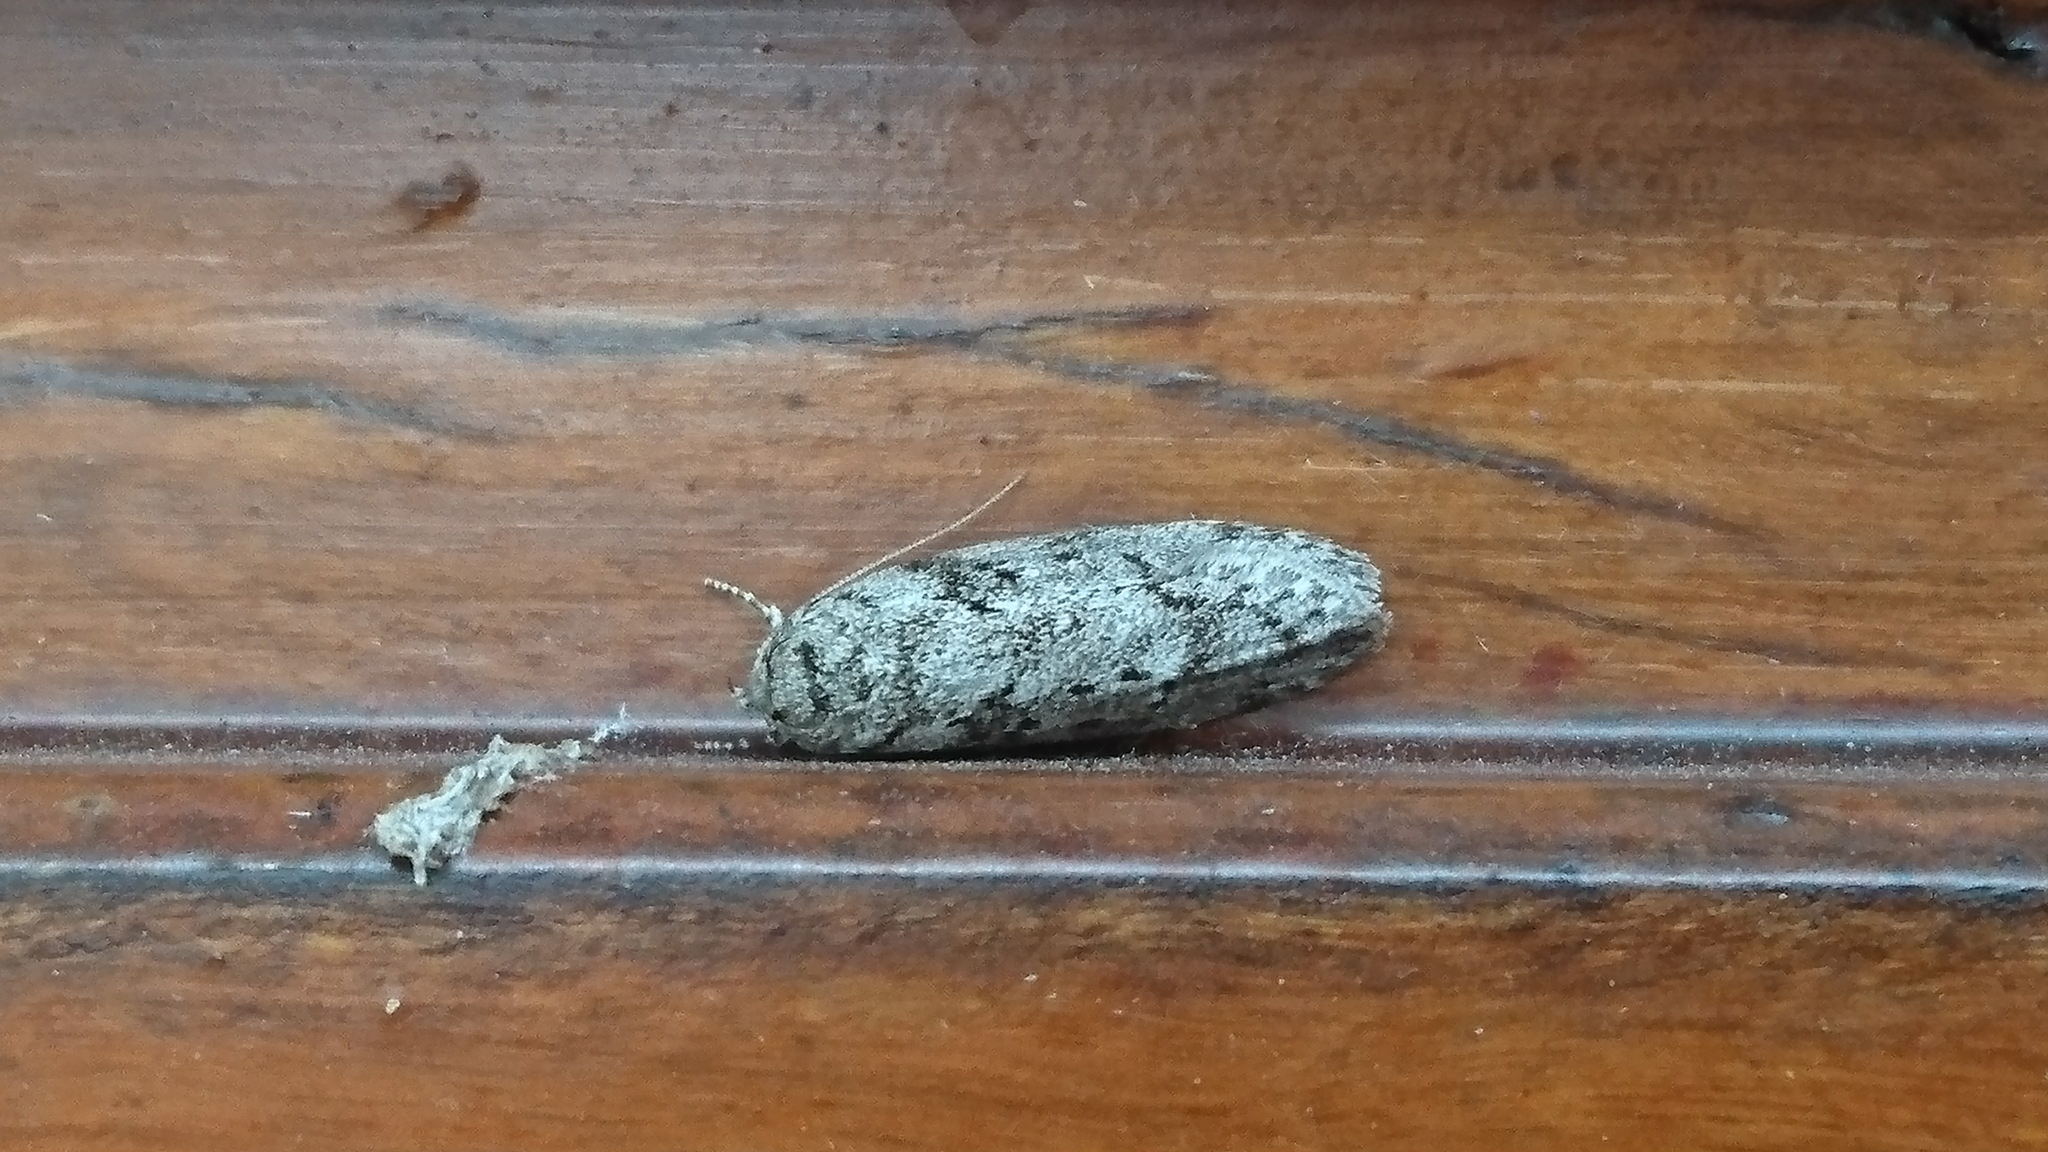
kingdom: Animalia
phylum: Arthropoda
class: Insecta
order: Lepidoptera
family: Oecophoridae
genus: Philobota
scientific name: Philobota
